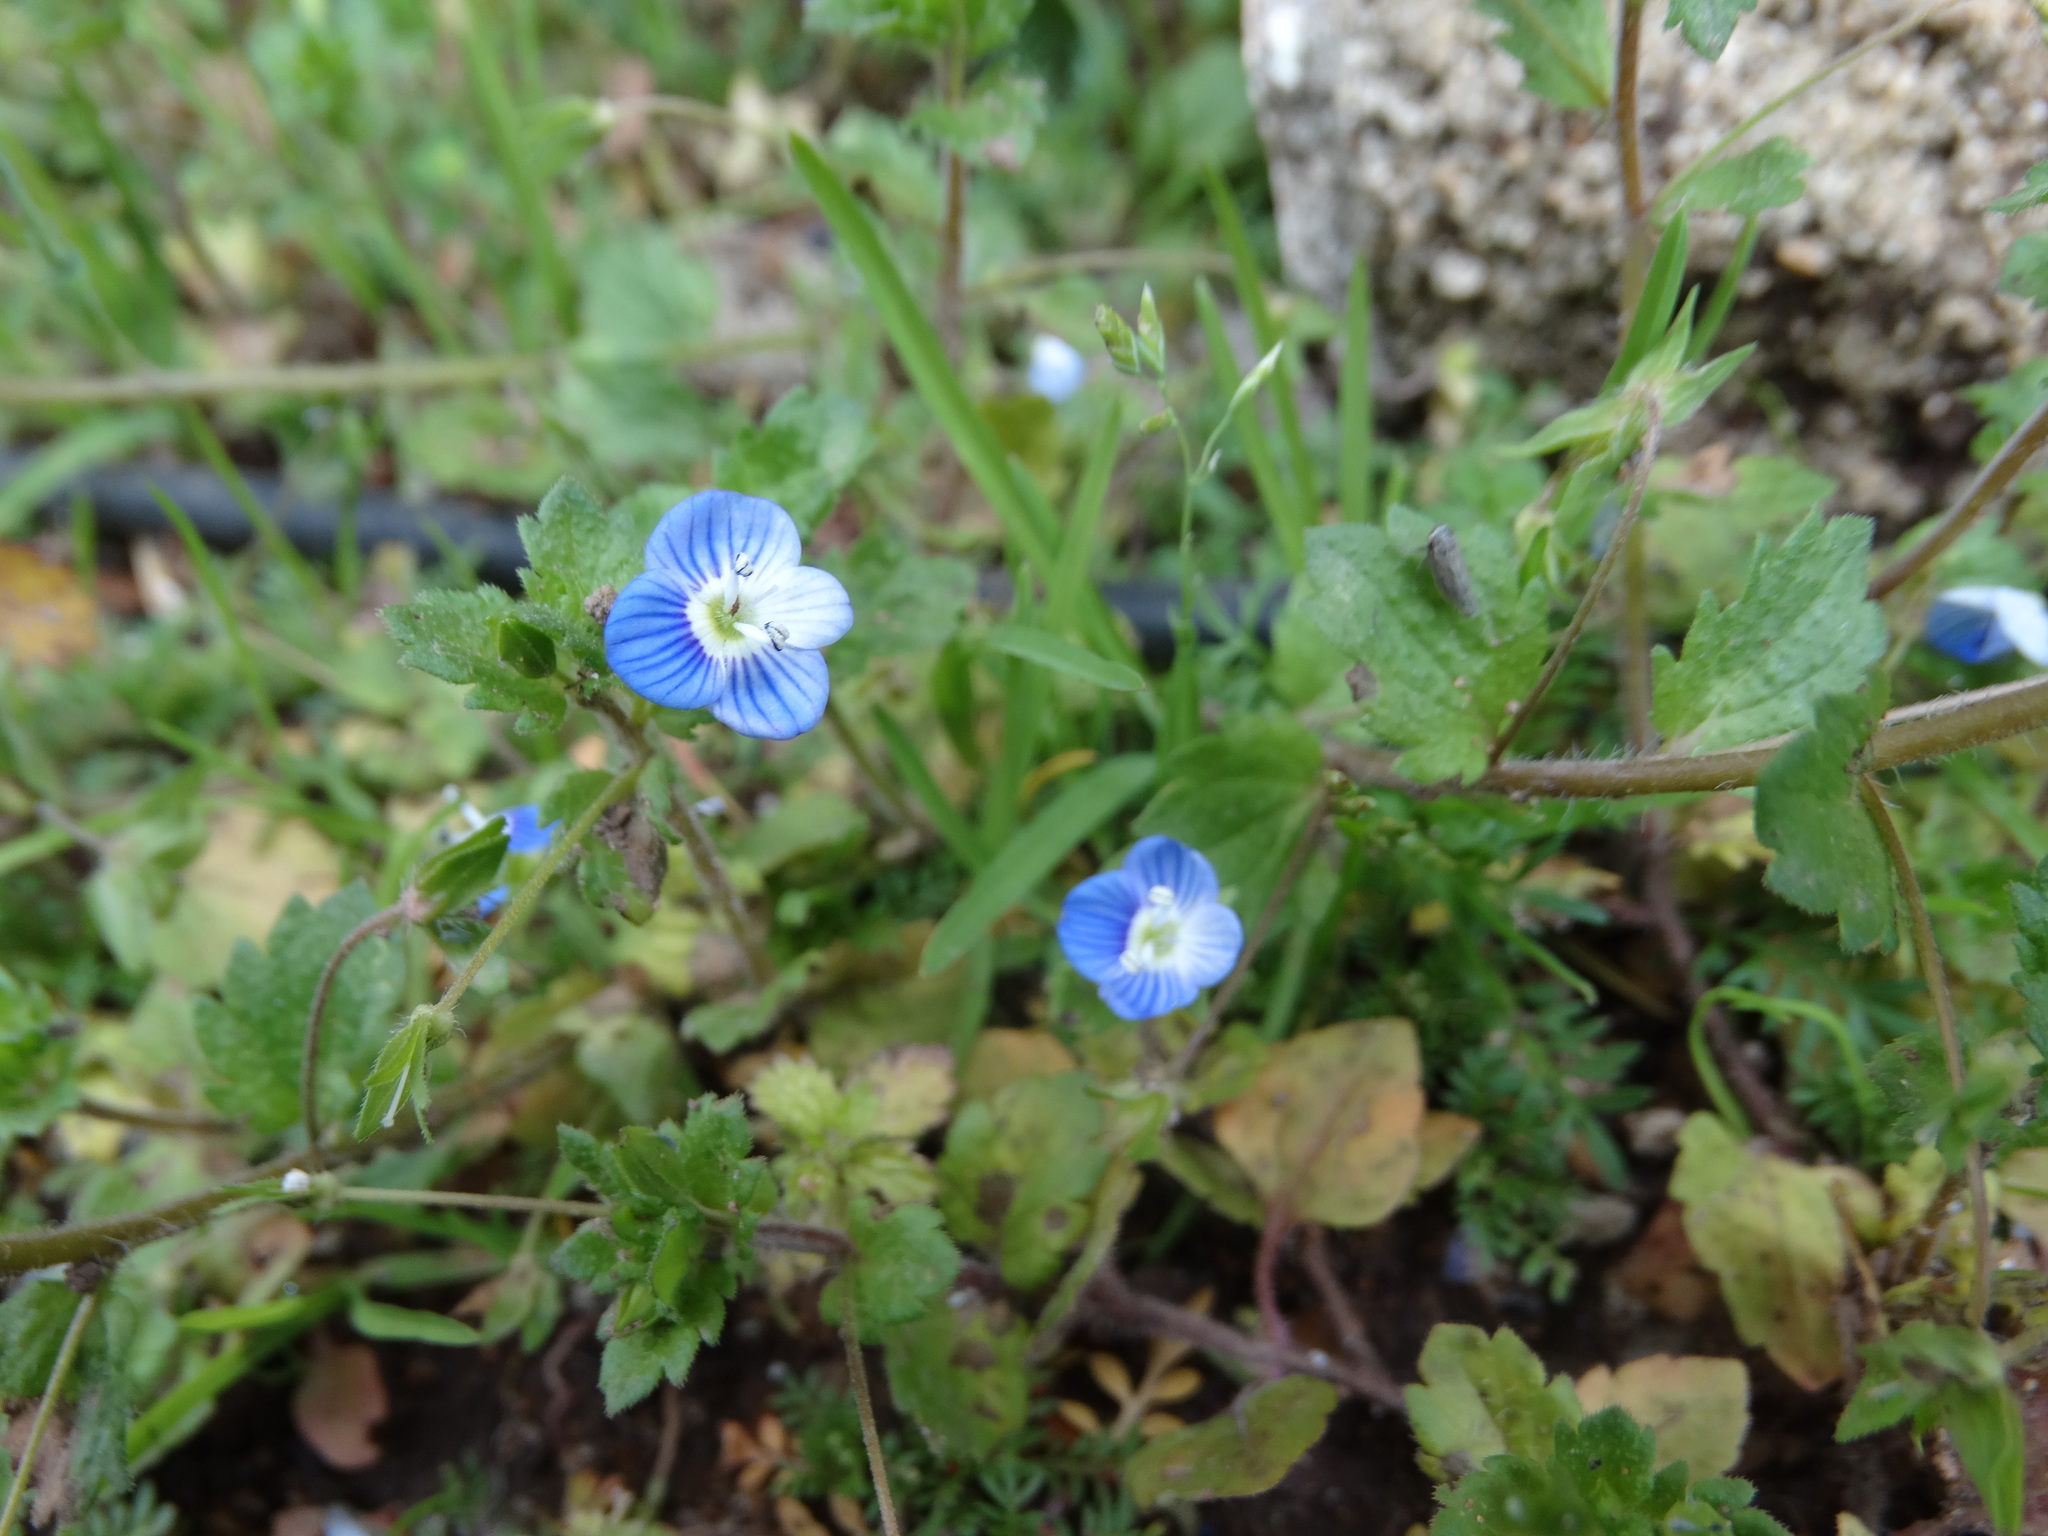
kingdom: Plantae
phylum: Tracheophyta
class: Magnoliopsida
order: Lamiales
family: Plantaginaceae
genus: Veronica
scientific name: Veronica persica
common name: Common field-speedwell
